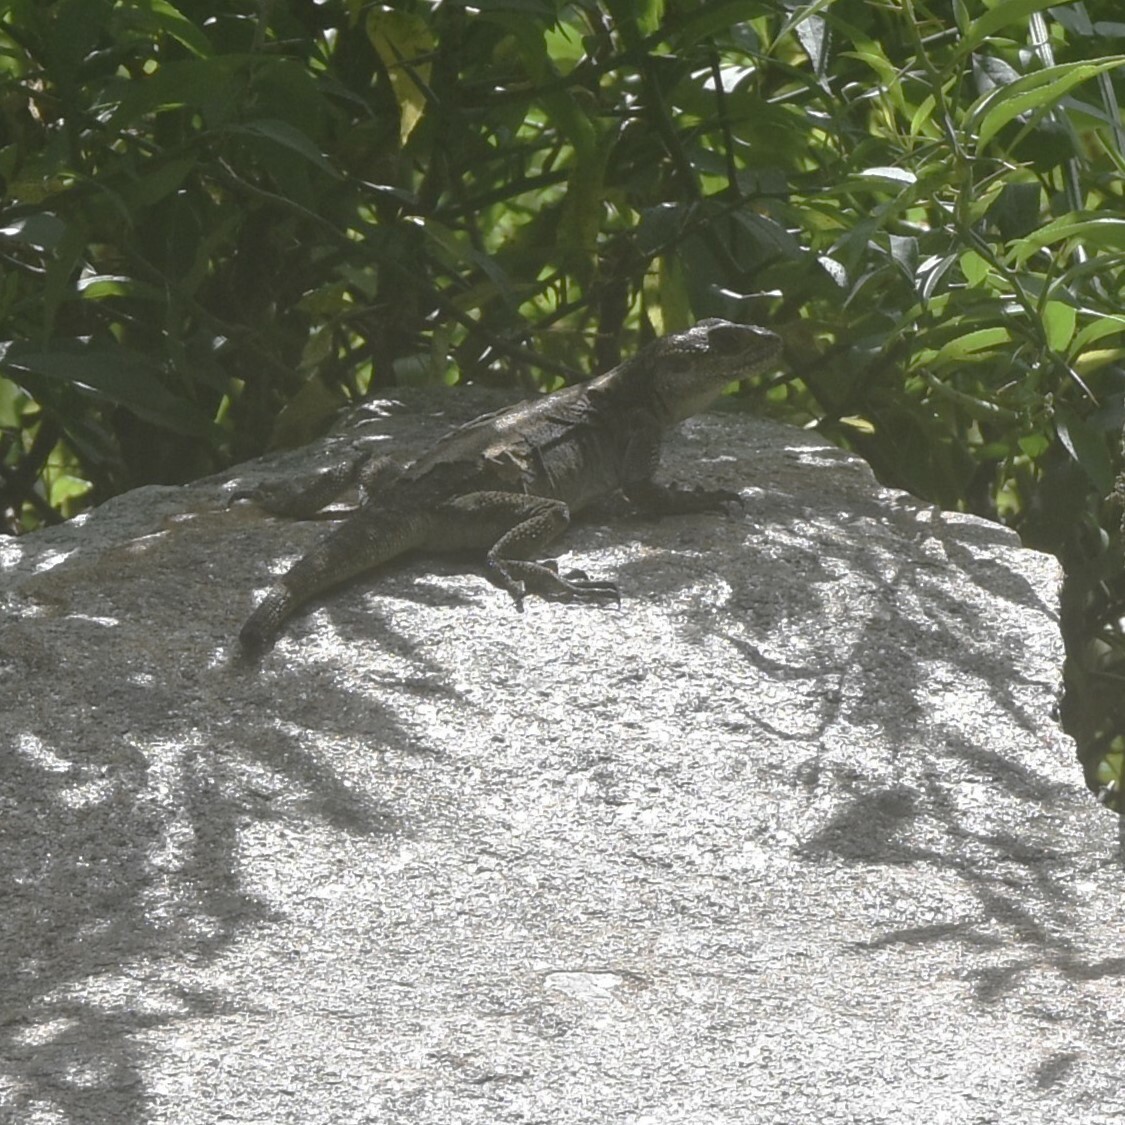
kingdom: Animalia
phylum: Chordata
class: Squamata
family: Agamidae
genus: Laudakia
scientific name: Laudakia tuberculata
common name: Kashmir rock agama
